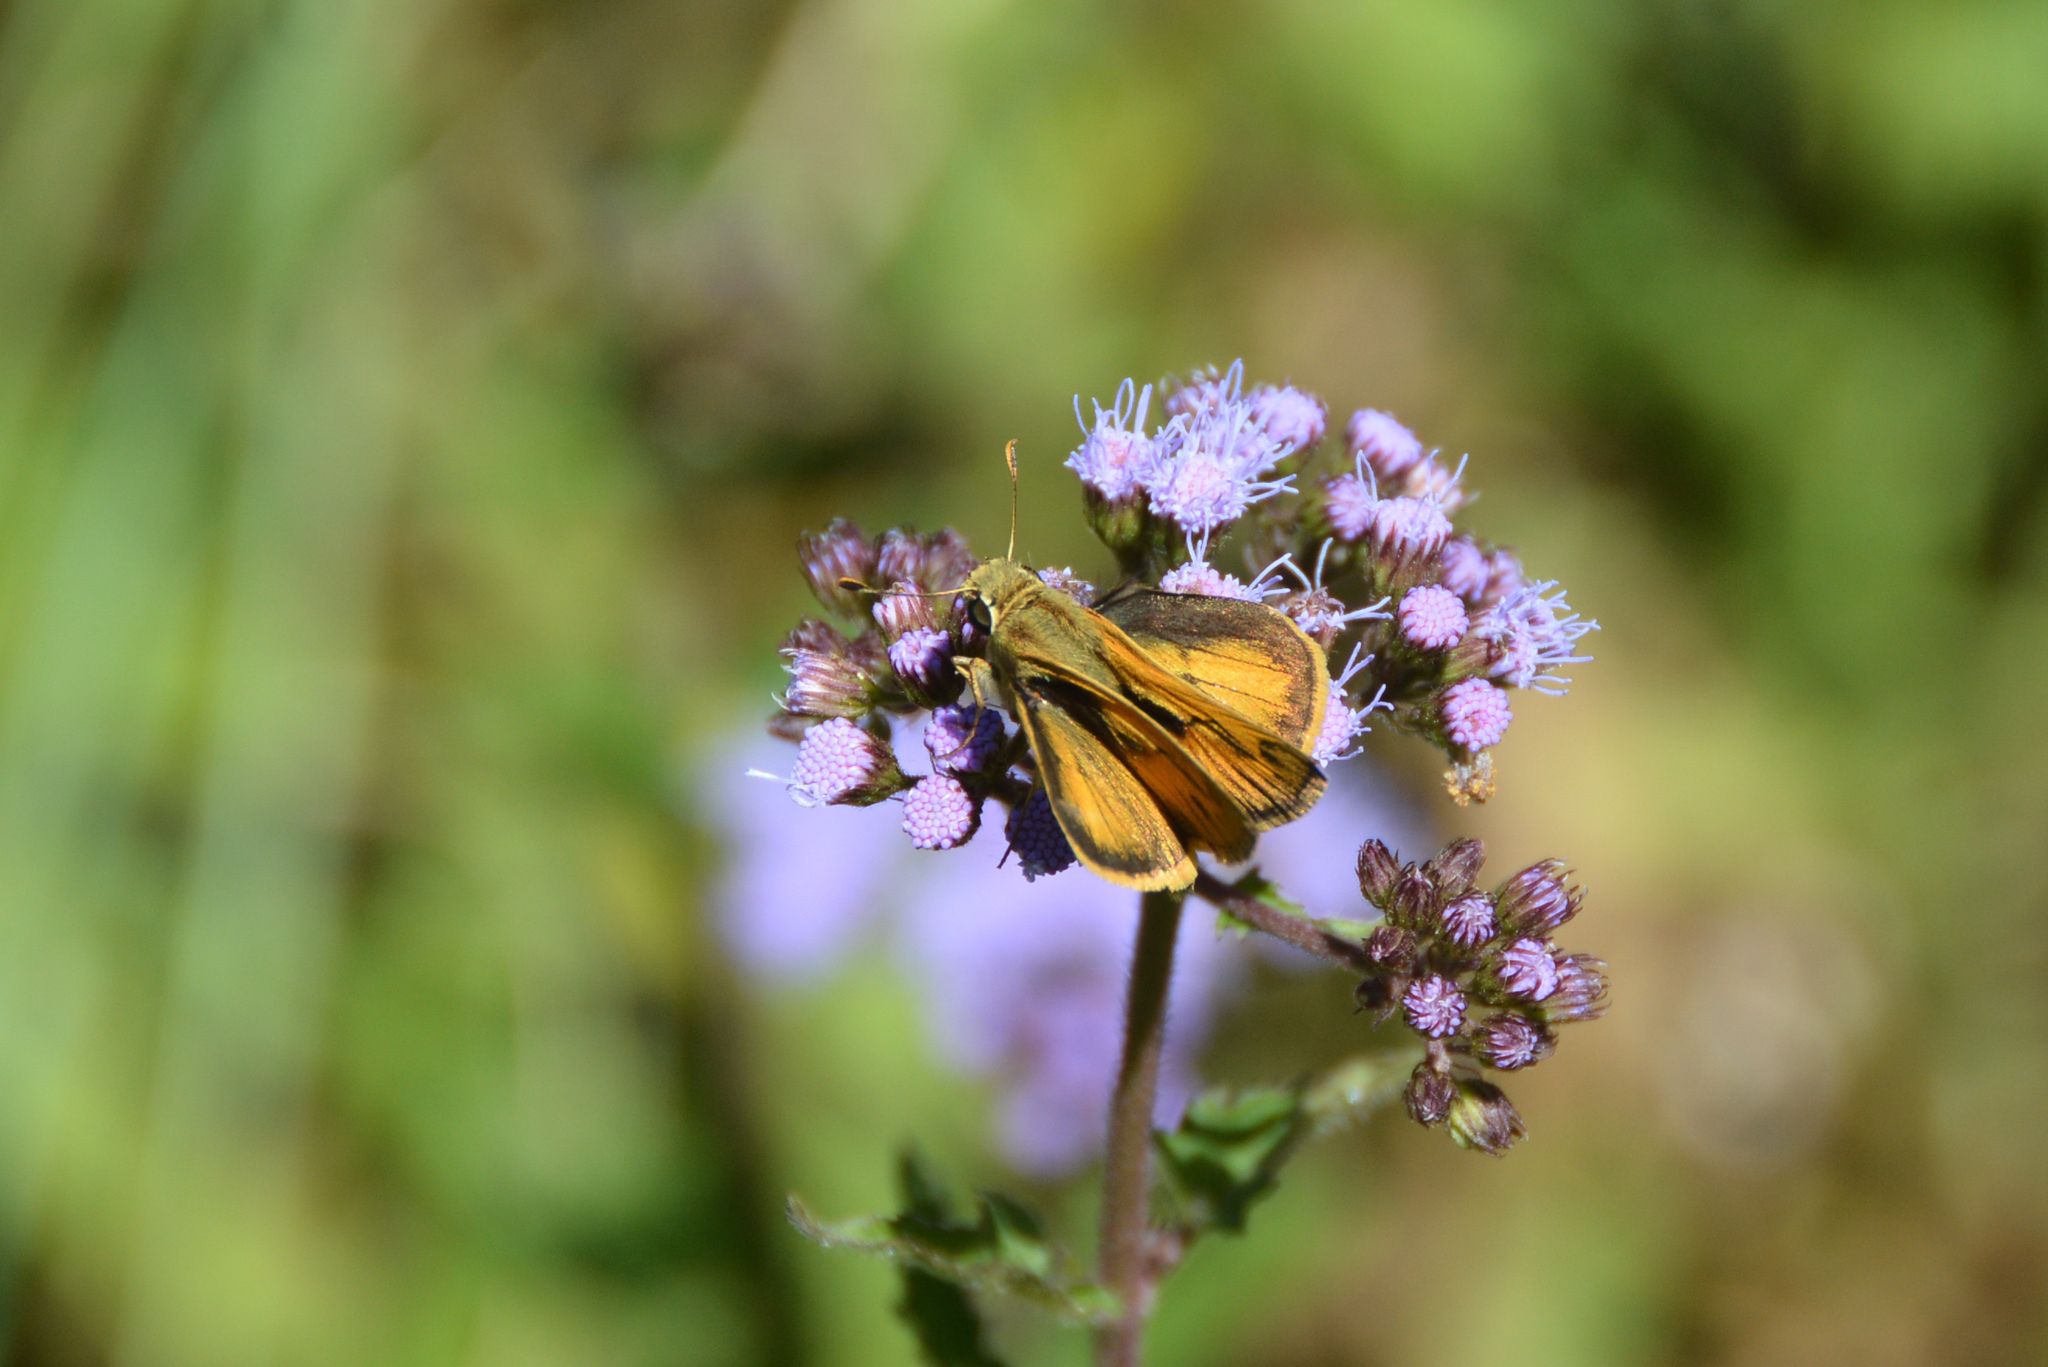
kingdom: Animalia
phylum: Arthropoda
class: Insecta
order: Lepidoptera
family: Hesperiidae
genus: Polites
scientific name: Polites vibex
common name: Whirlabout
